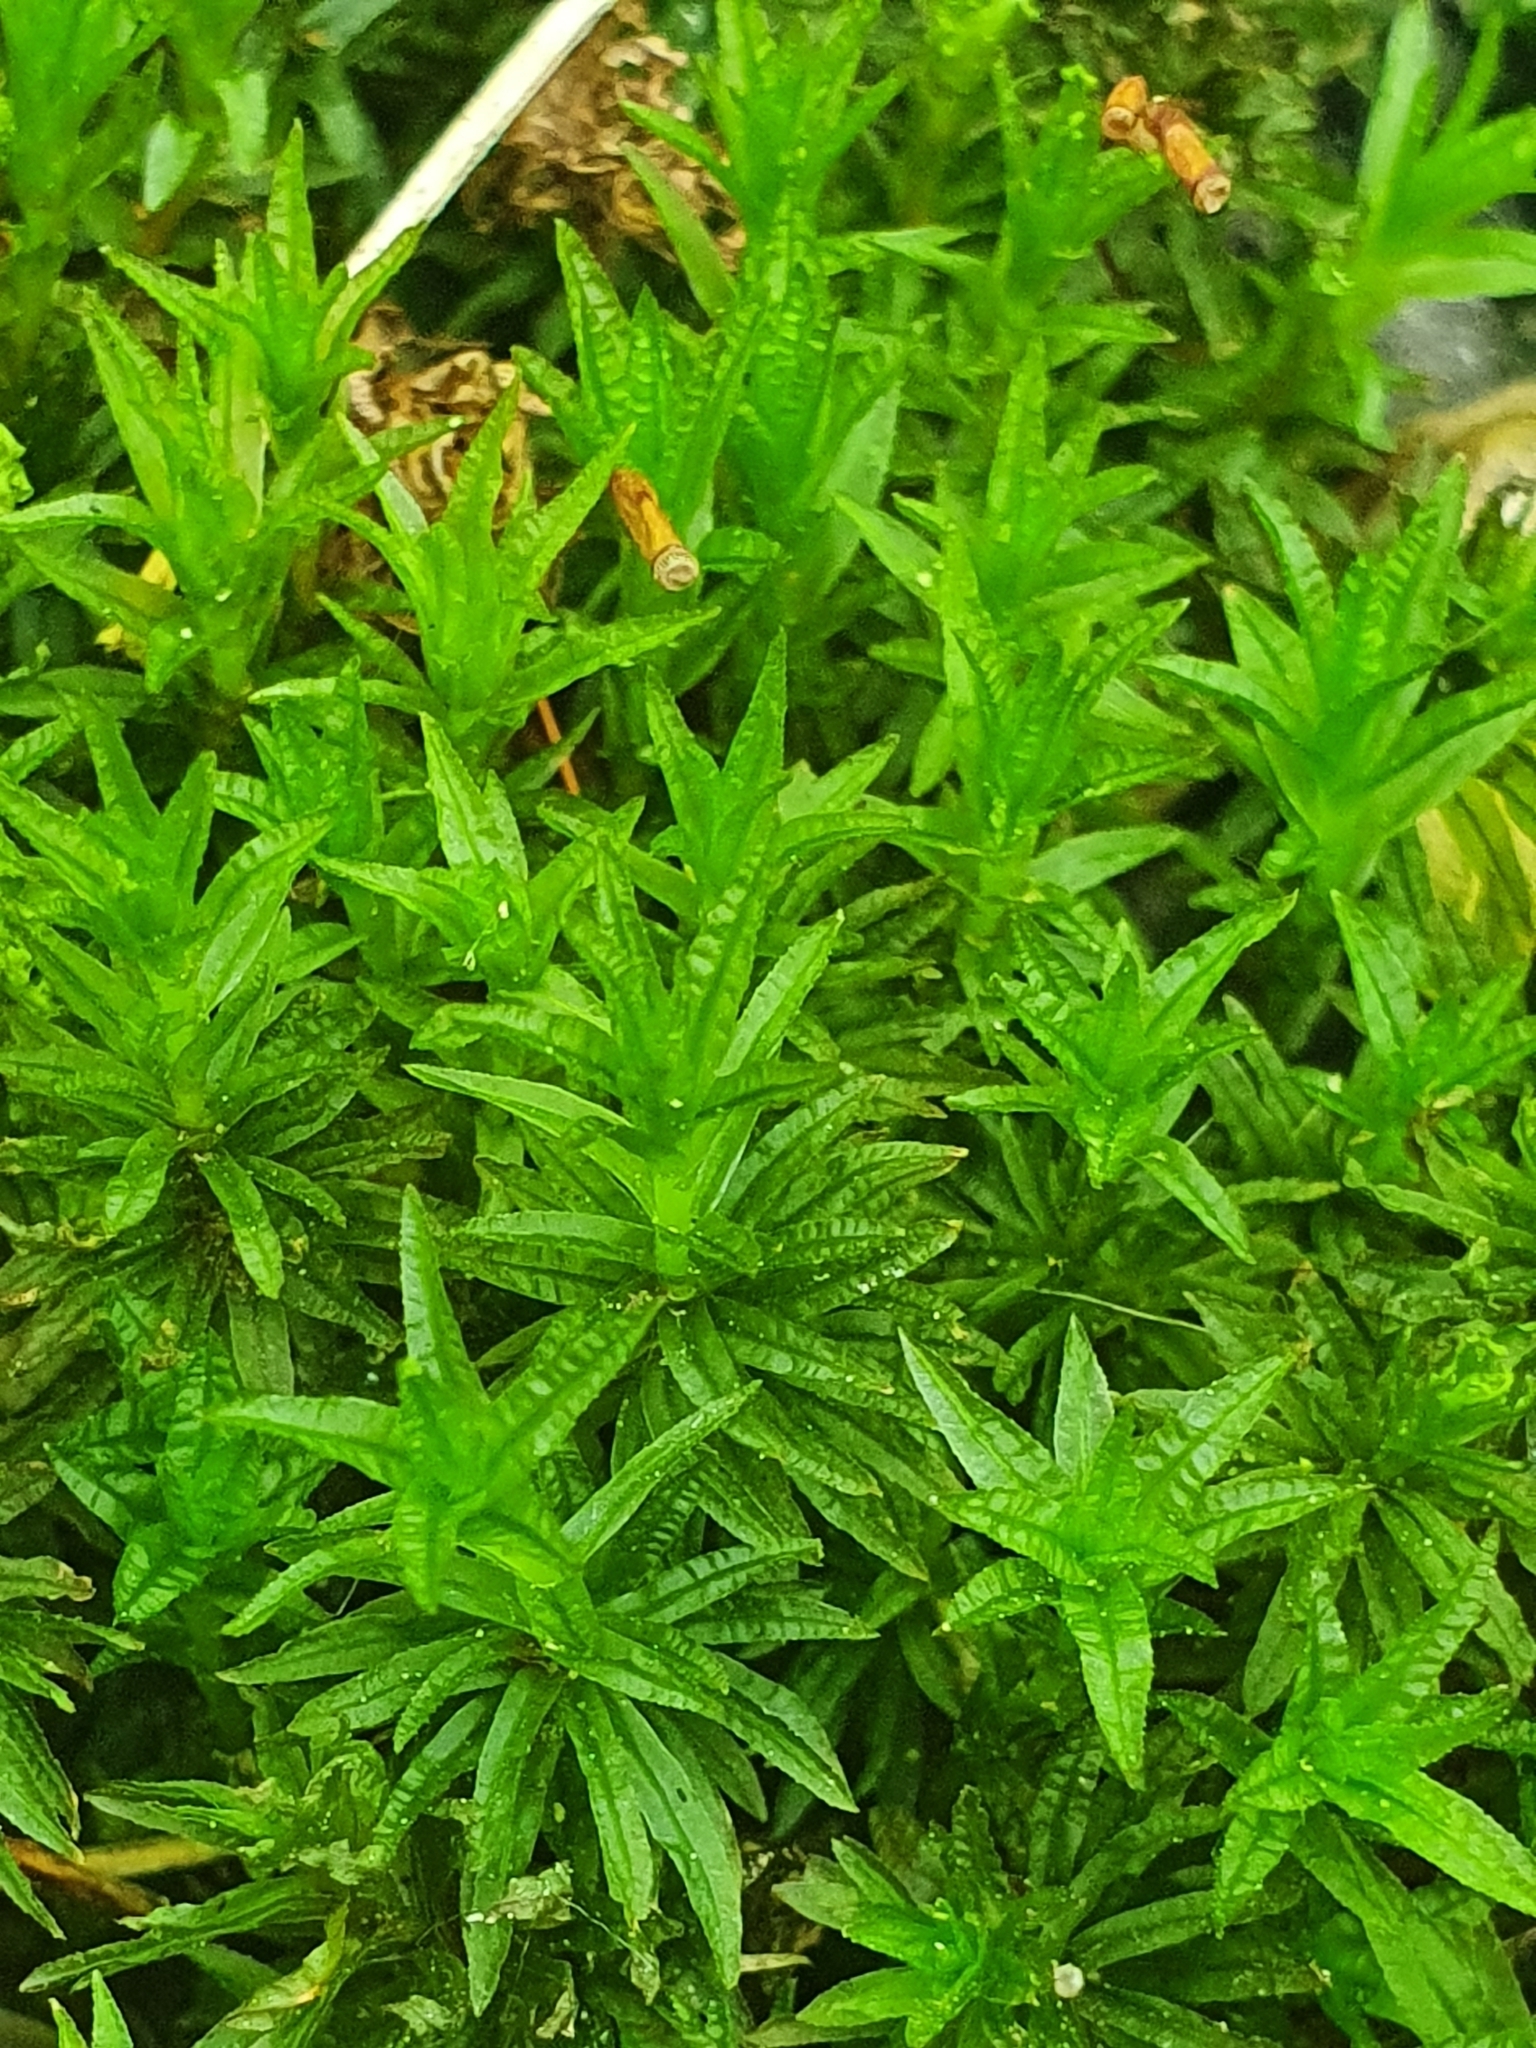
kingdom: Plantae
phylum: Bryophyta
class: Polytrichopsida
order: Polytrichales
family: Polytrichaceae
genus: Atrichum
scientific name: Atrichum undulatum
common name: Common smoothcap
